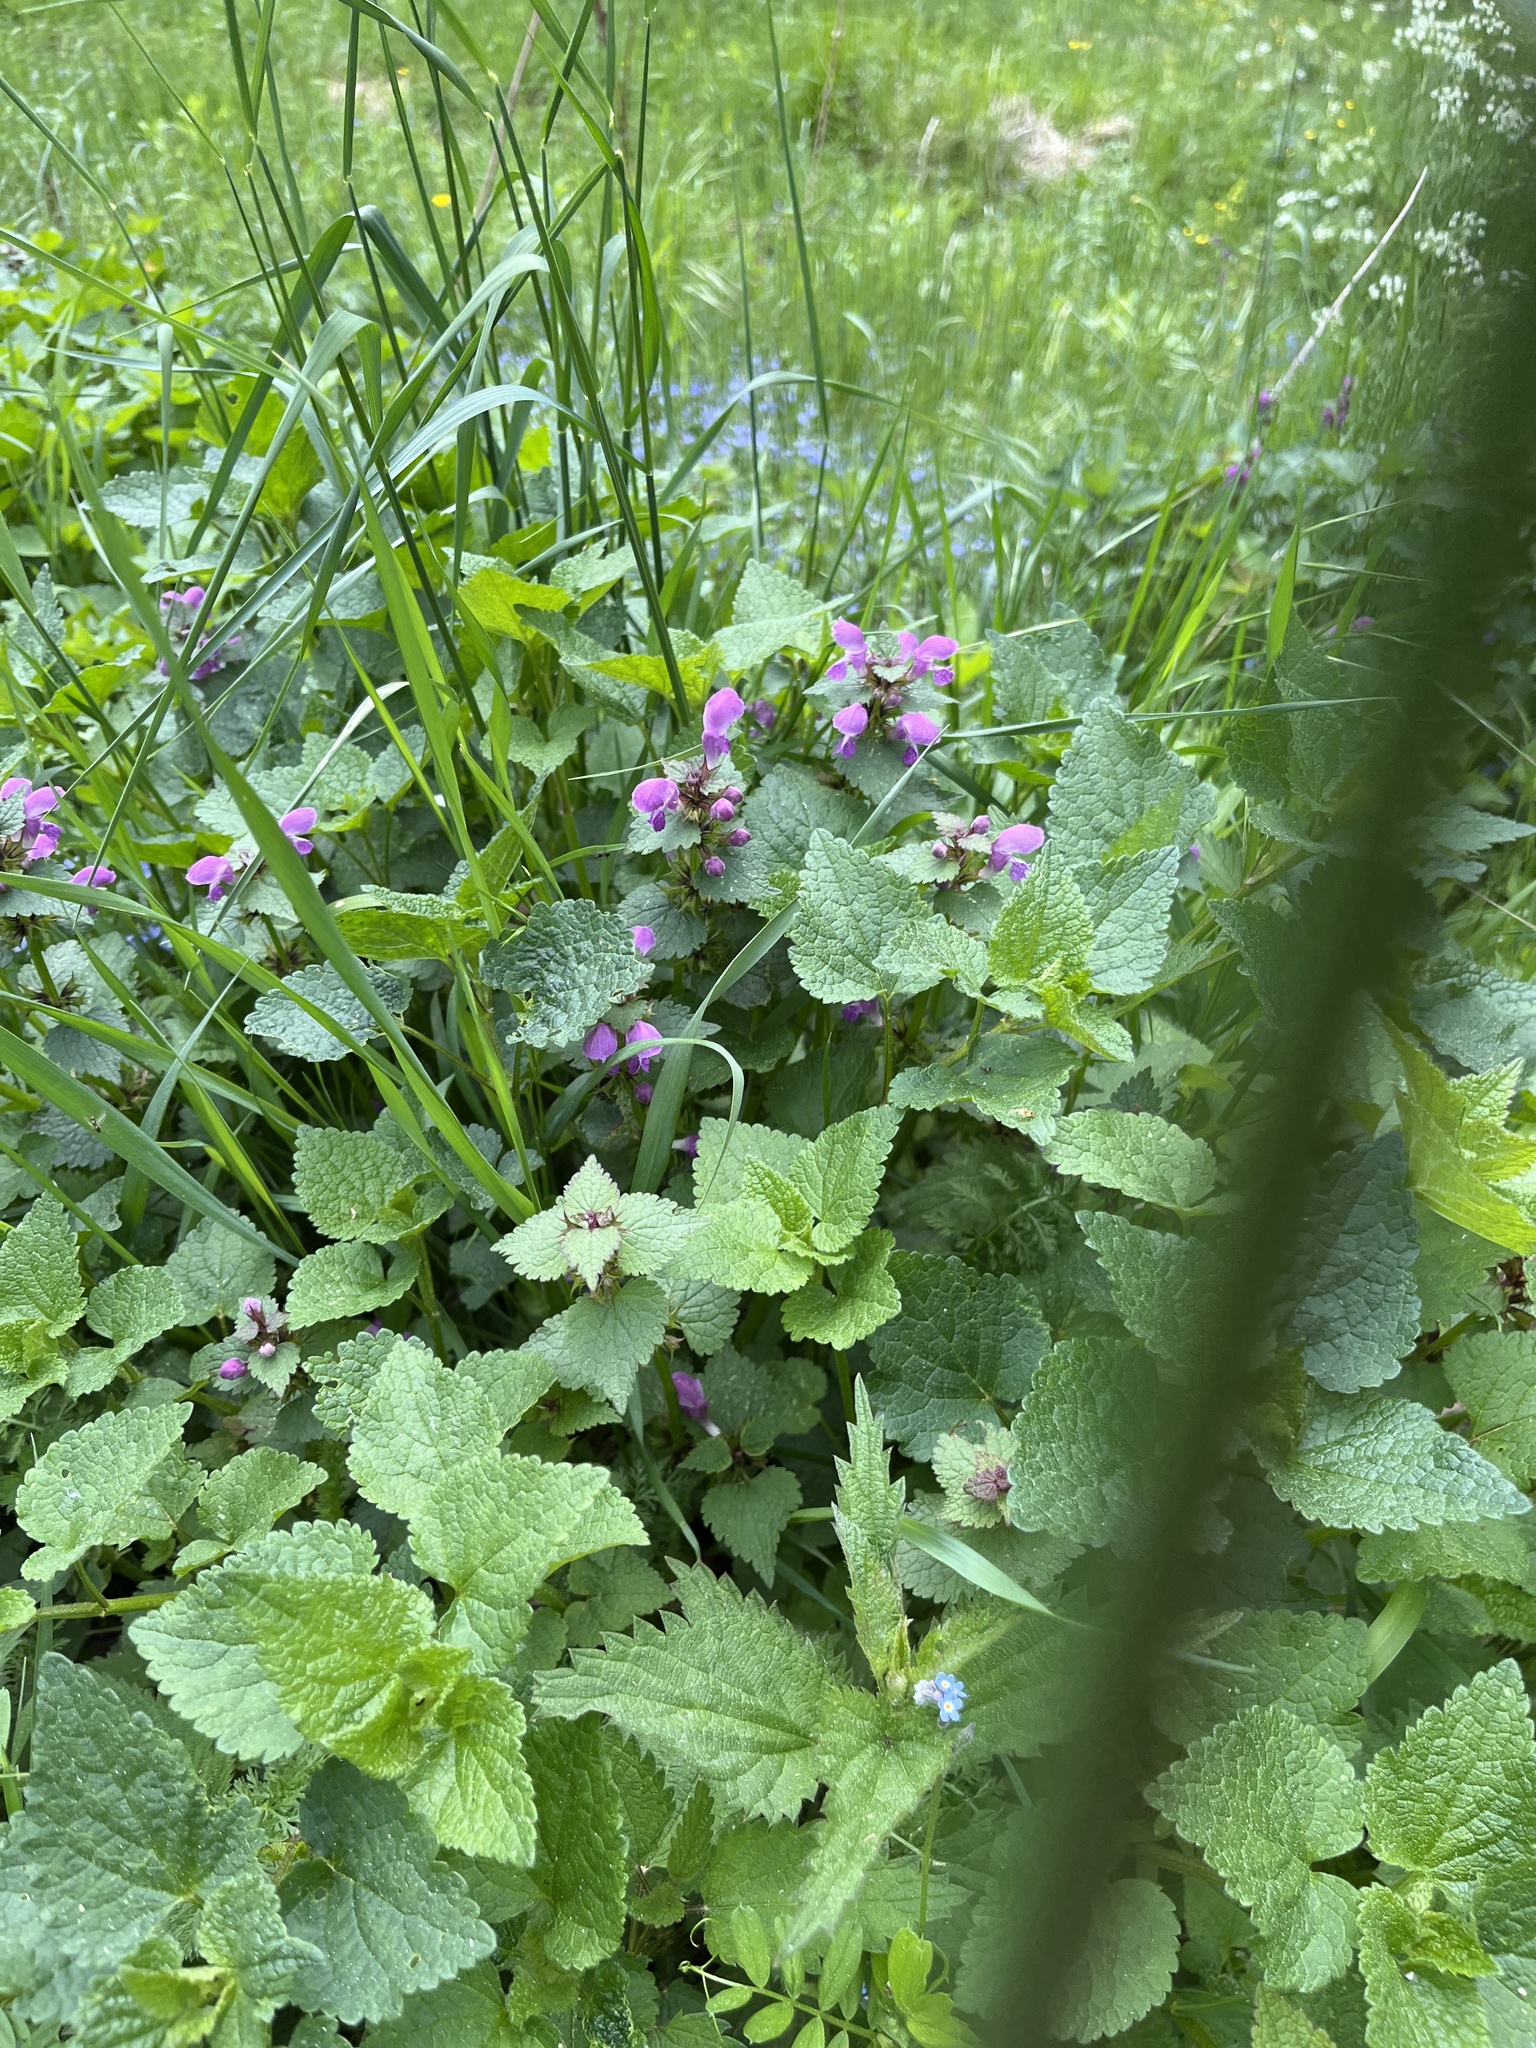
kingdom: Plantae
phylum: Tracheophyta
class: Magnoliopsida
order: Lamiales
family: Lamiaceae
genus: Lamium
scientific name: Lamium maculatum
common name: Spotted dead-nettle
